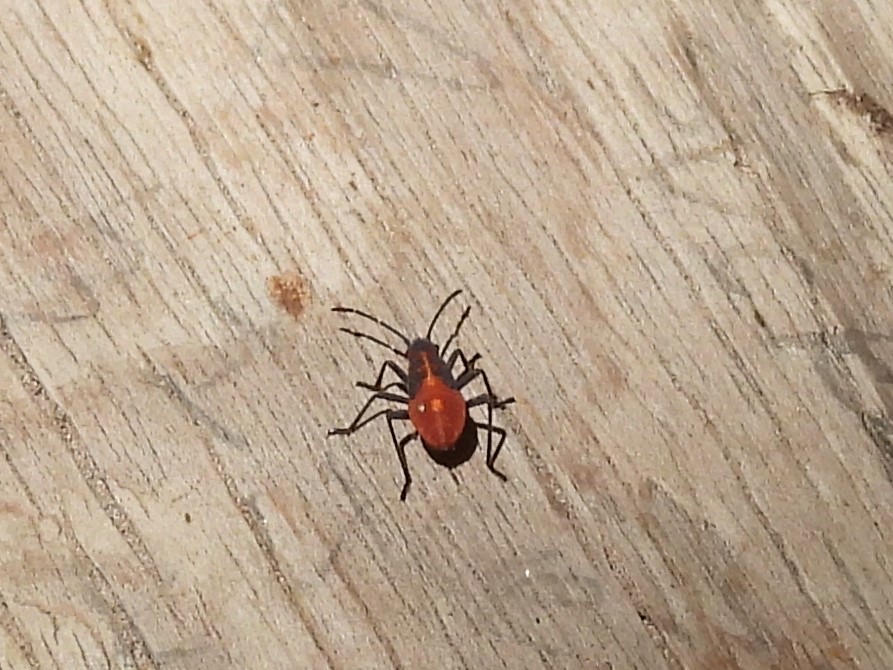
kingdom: Animalia
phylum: Arthropoda
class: Insecta
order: Hemiptera
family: Rhopalidae
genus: Boisea
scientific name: Boisea trivittata
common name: Boxelder bug
